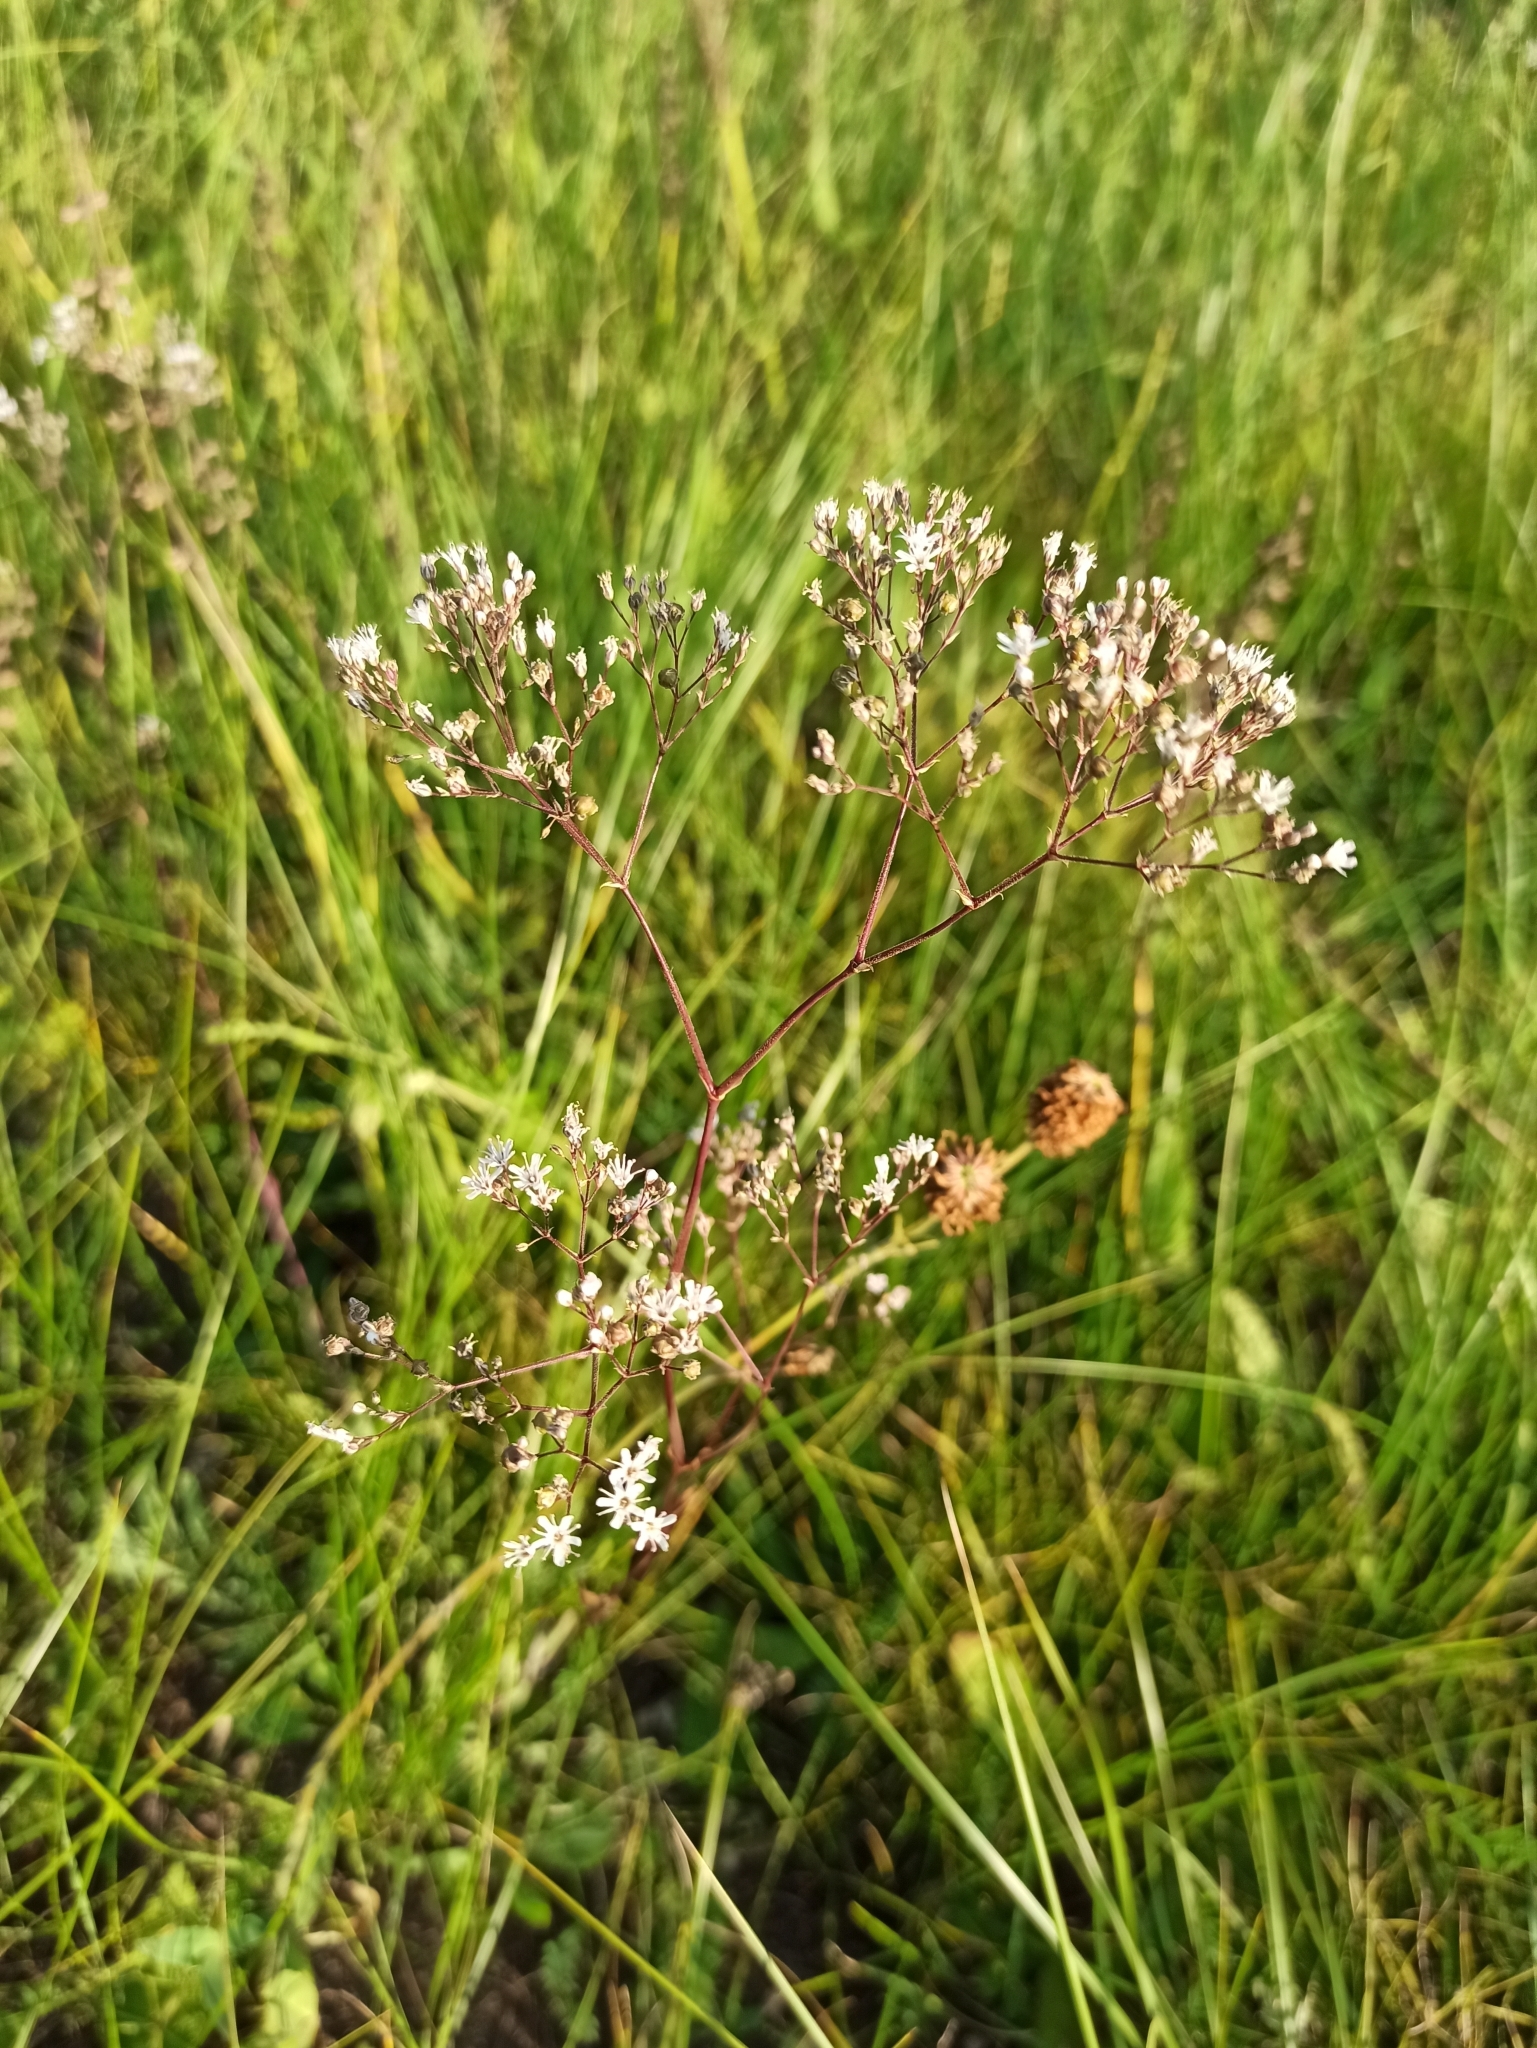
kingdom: Plantae
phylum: Tracheophyta
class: Magnoliopsida
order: Caryophyllales
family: Caryophyllaceae
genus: Gypsophila
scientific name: Gypsophila altissima
